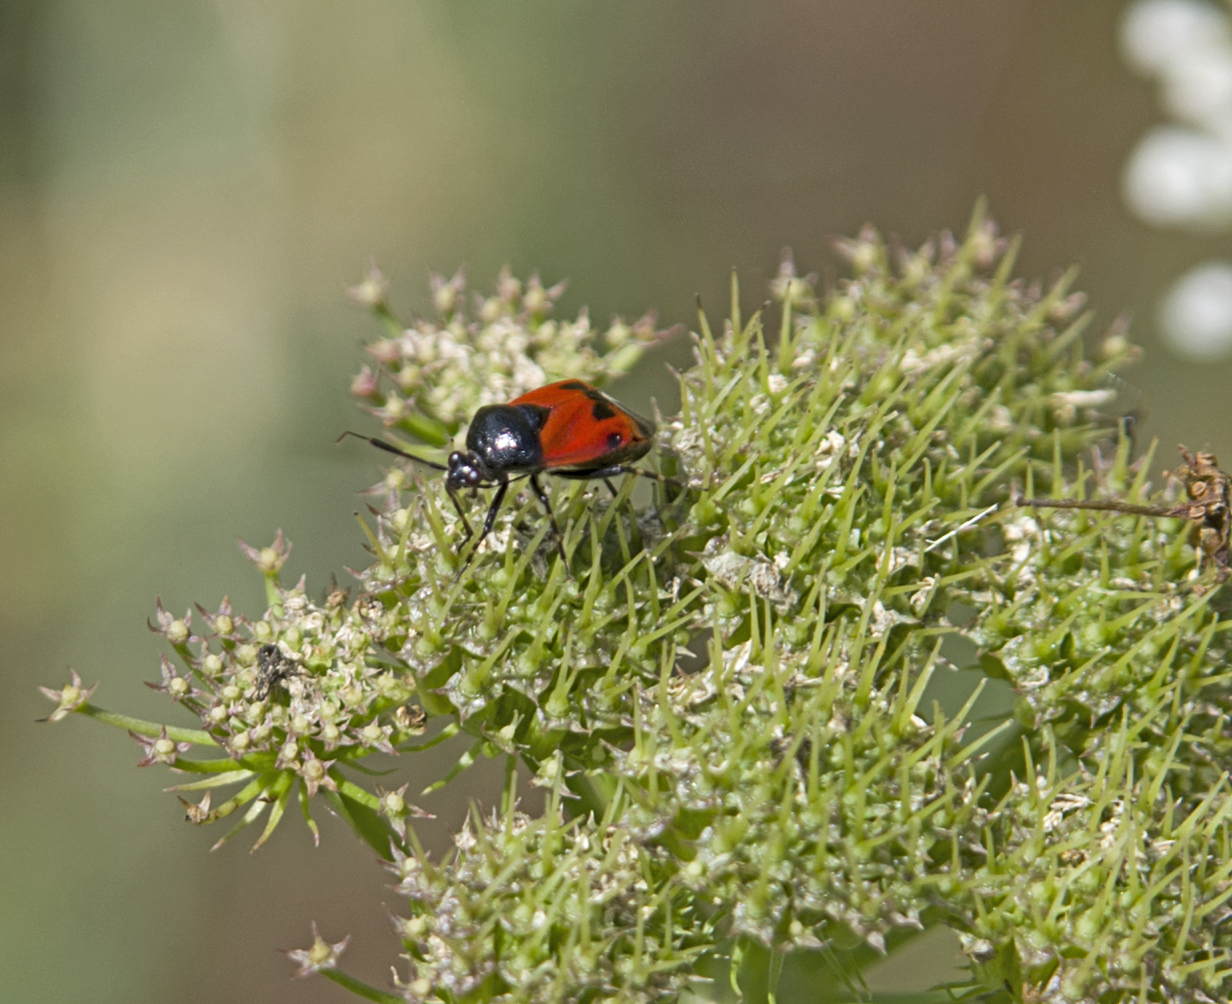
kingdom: Animalia
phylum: Arthropoda
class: Insecta
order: Hemiptera
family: Miridae
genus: Deraeocoris
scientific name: Deraeocoris rutilus
